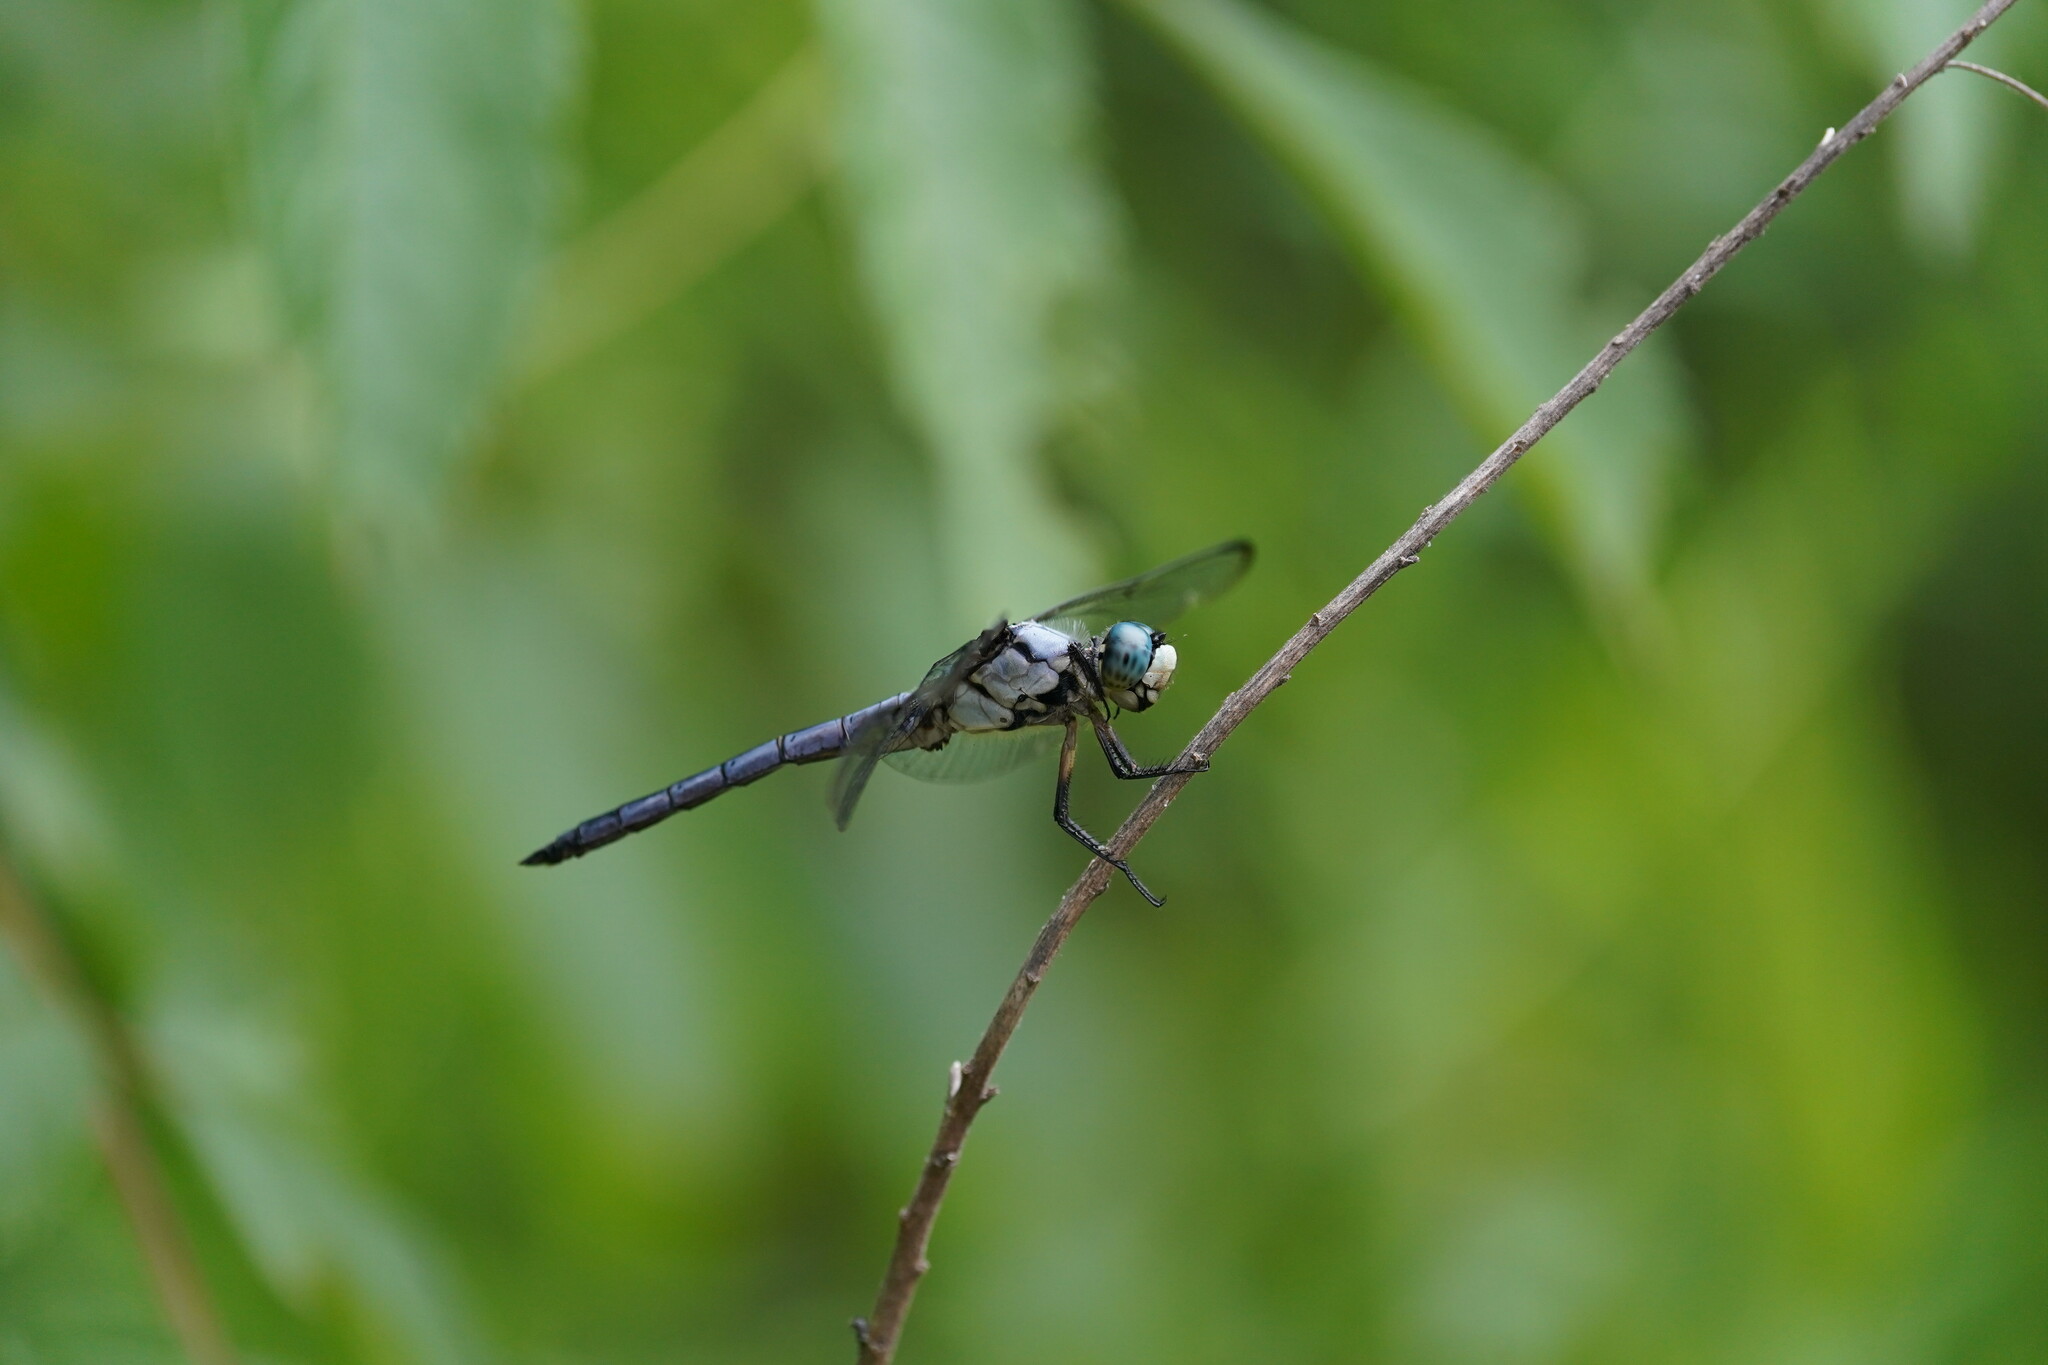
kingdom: Animalia
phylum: Arthropoda
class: Insecta
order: Odonata
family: Libellulidae
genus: Libellula
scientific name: Libellula vibrans
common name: Great blue skimmer
